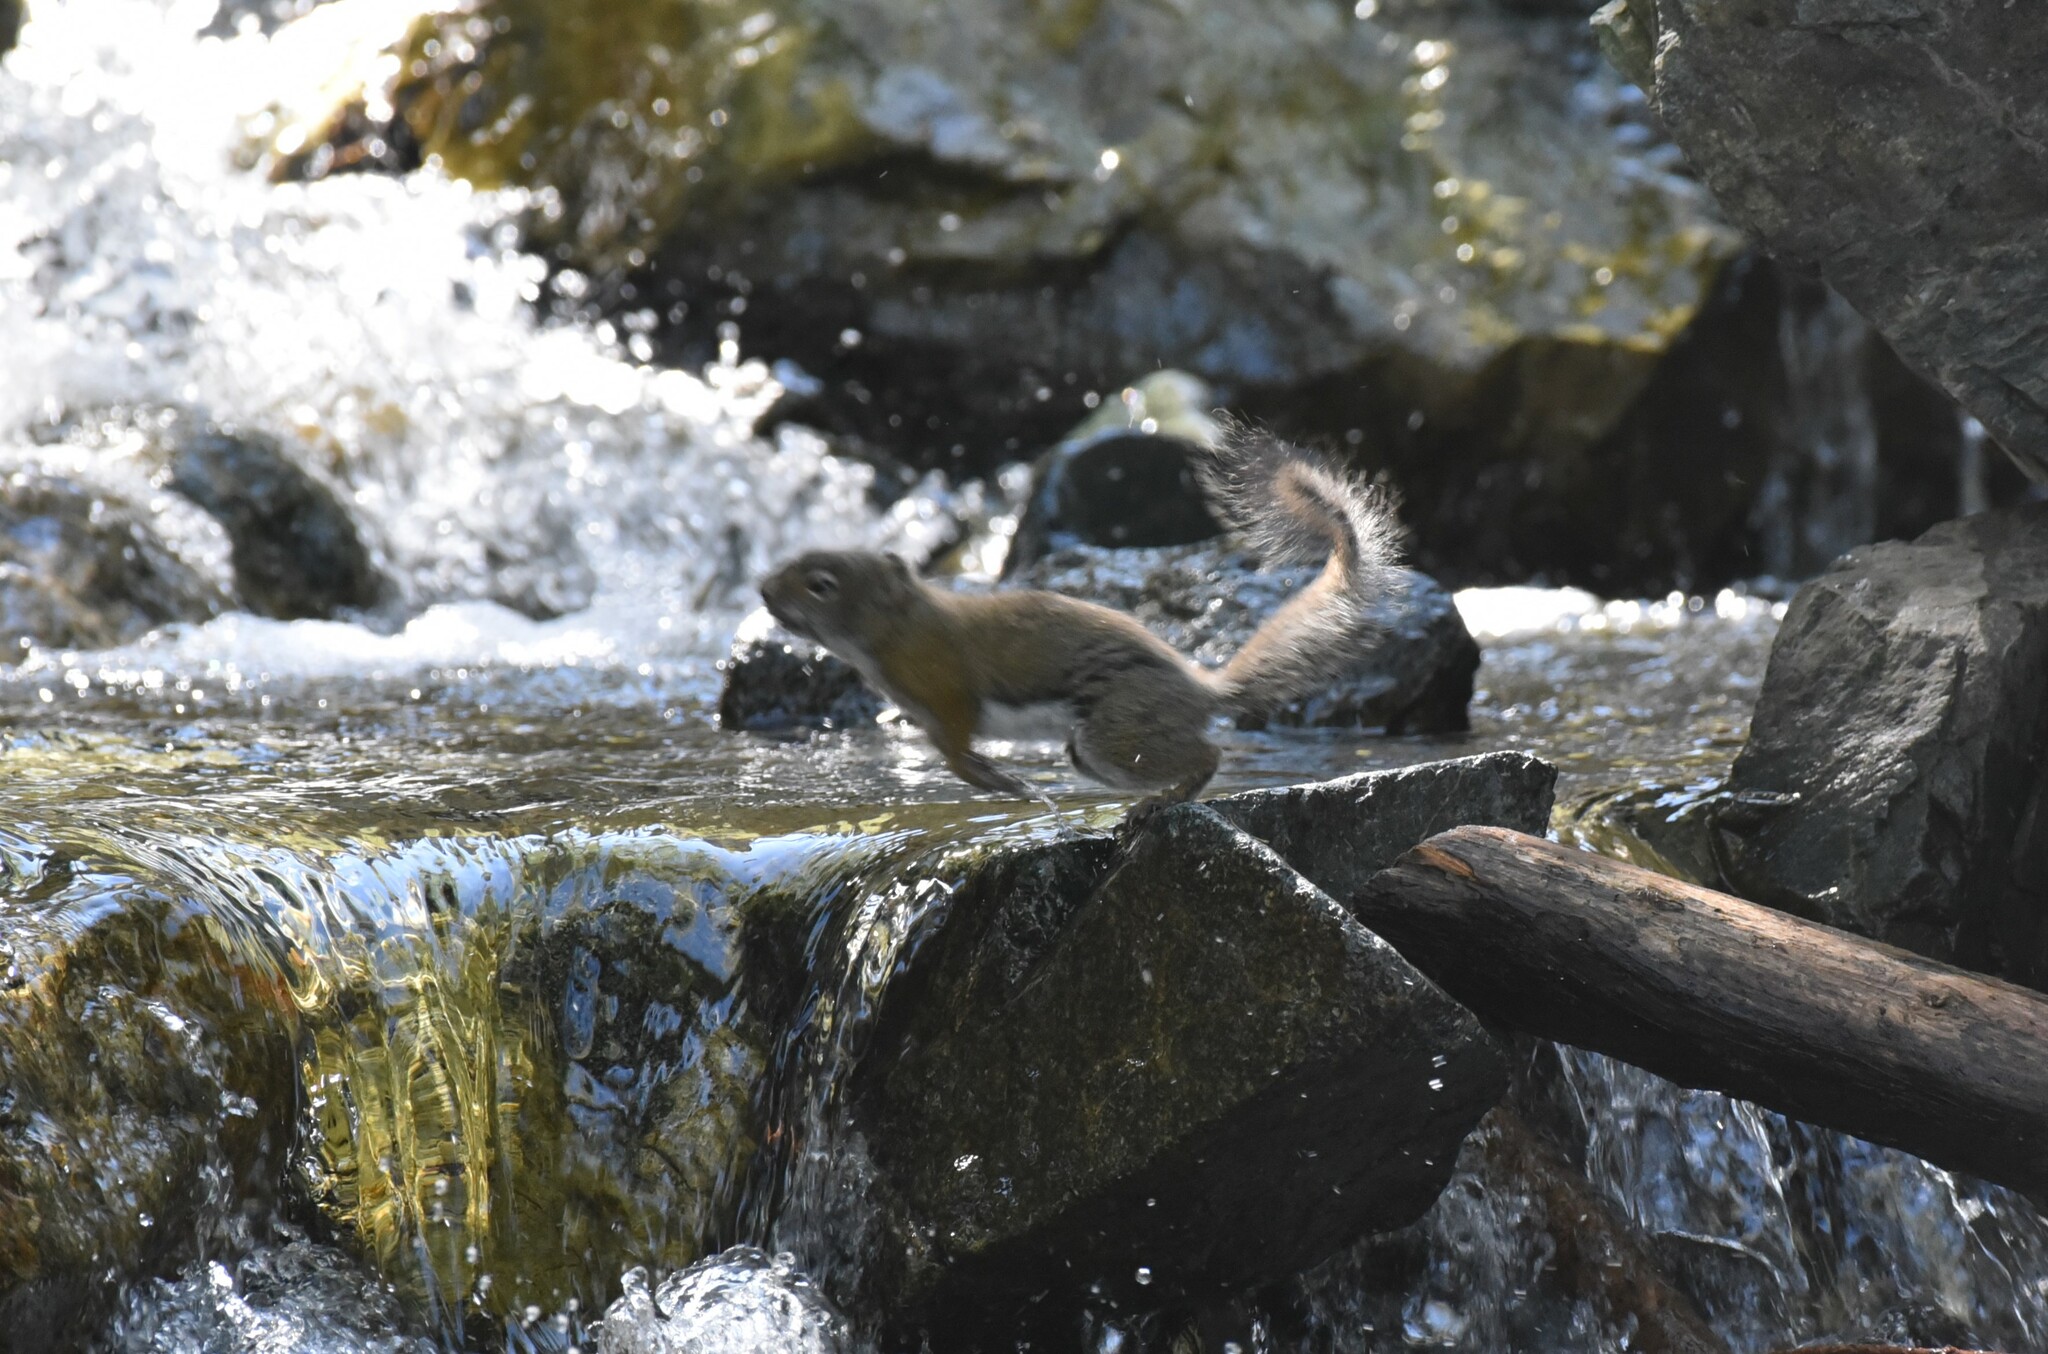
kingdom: Animalia
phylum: Chordata
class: Mammalia
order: Rodentia
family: Sciuridae
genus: Tamiasciurus
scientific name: Tamiasciurus hudsonicus
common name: Red squirrel
